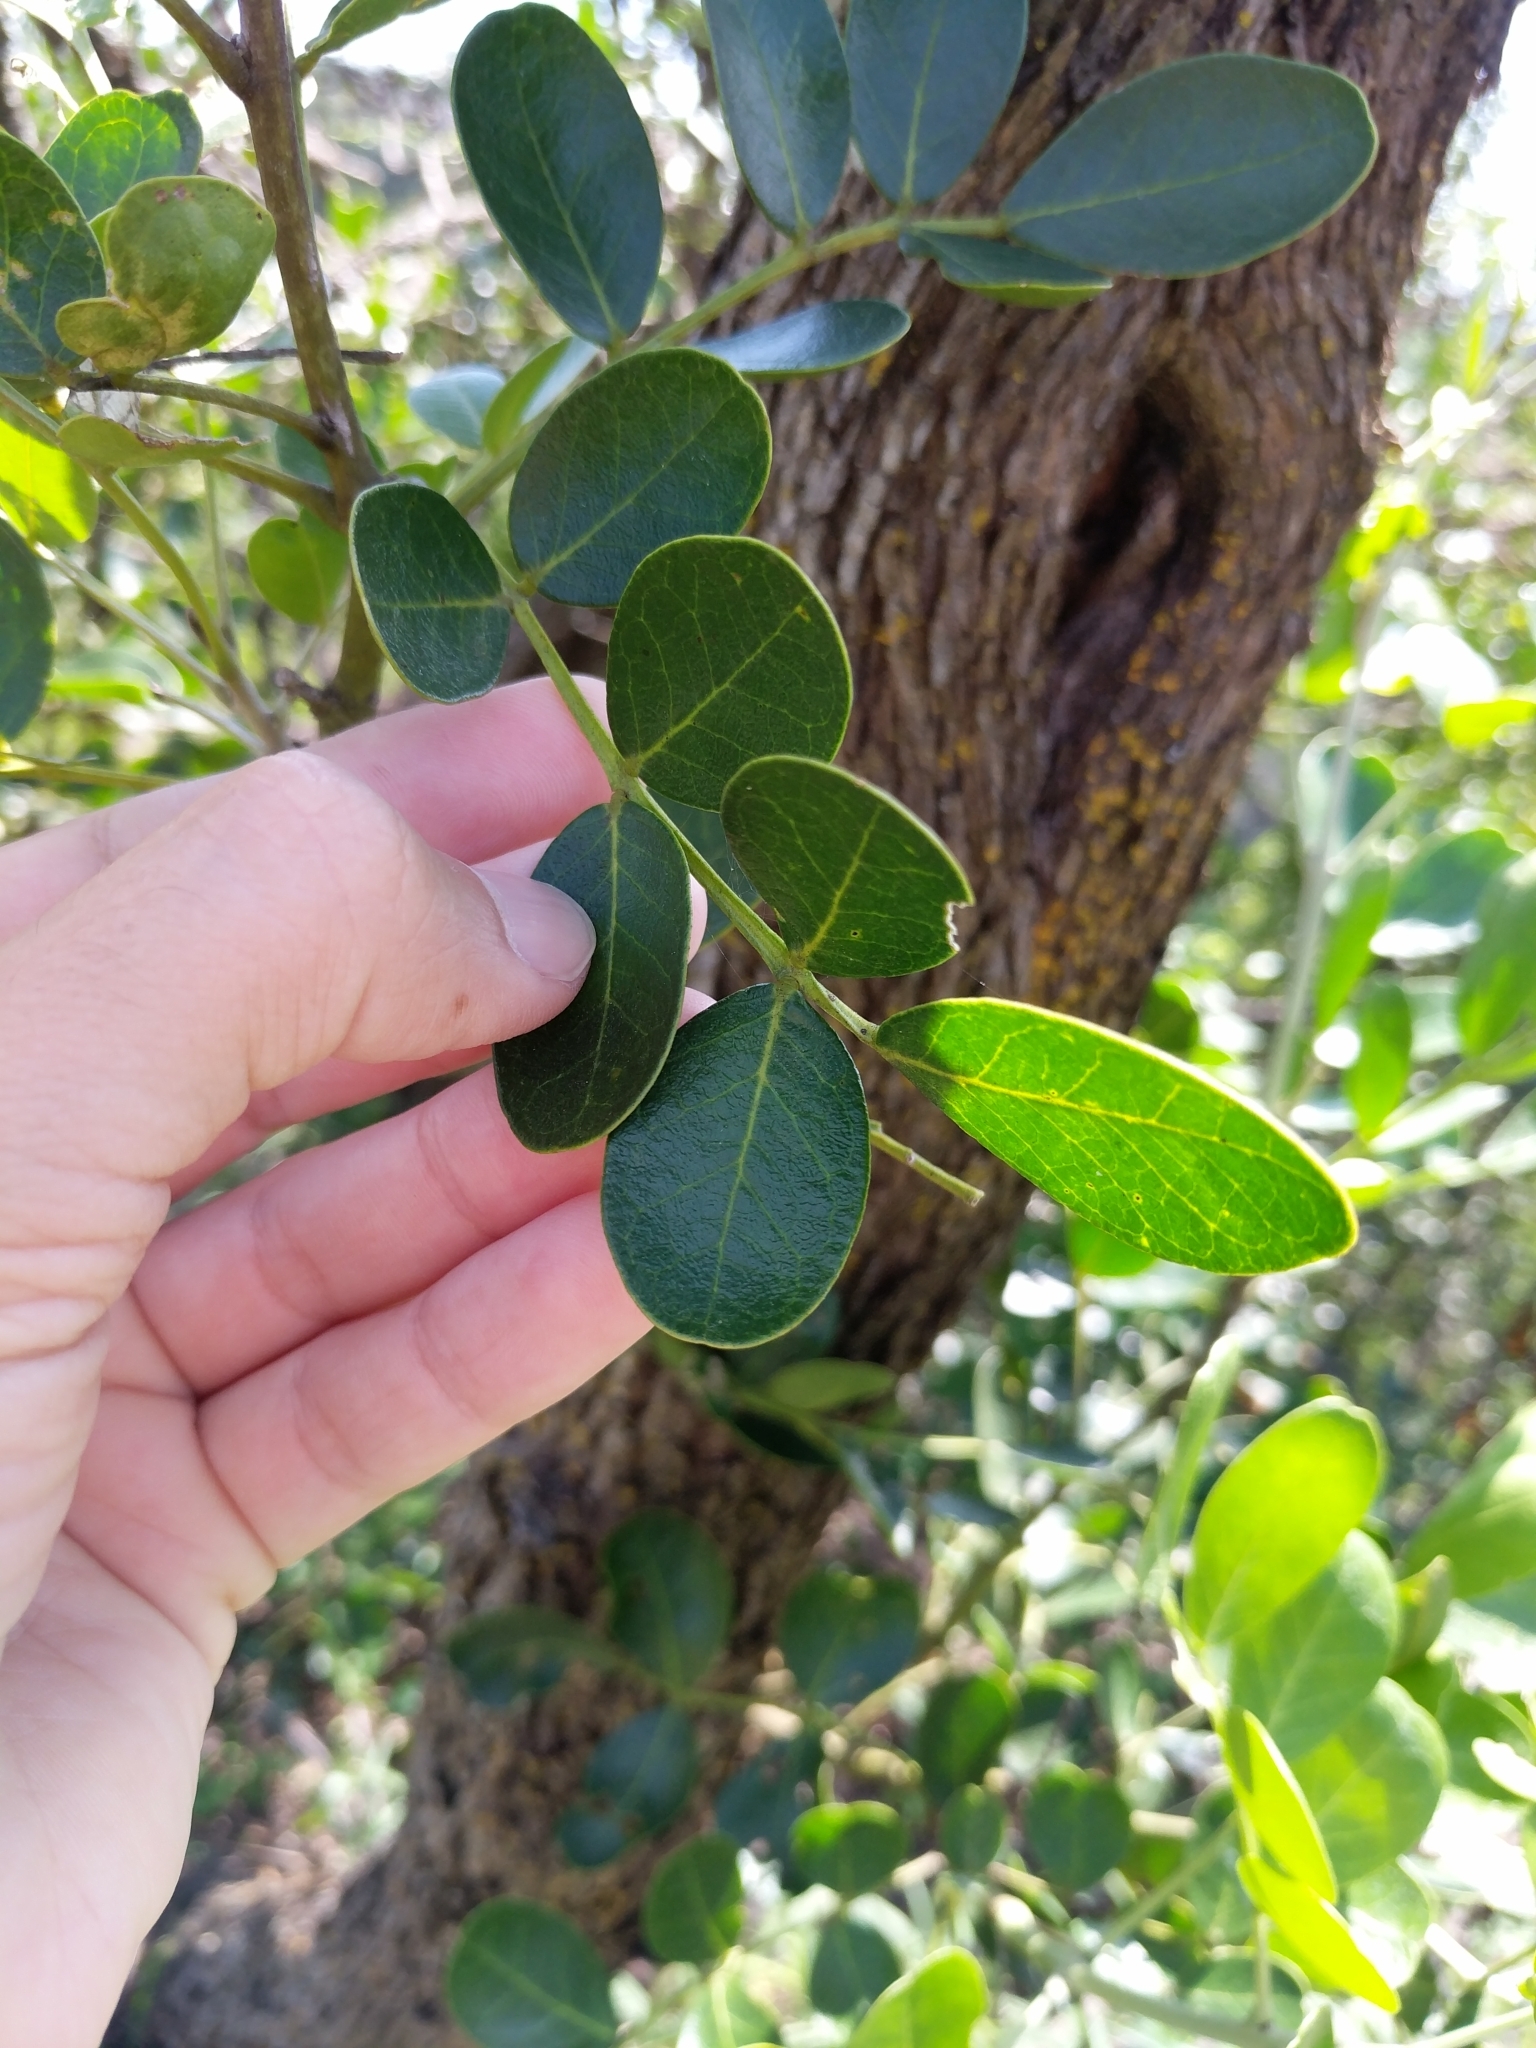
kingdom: Plantae
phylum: Tracheophyta
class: Magnoliopsida
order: Fabales
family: Fabaceae
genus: Dermatophyllum
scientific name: Dermatophyllum secundiflorum
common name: Texas-mountain-laurel
